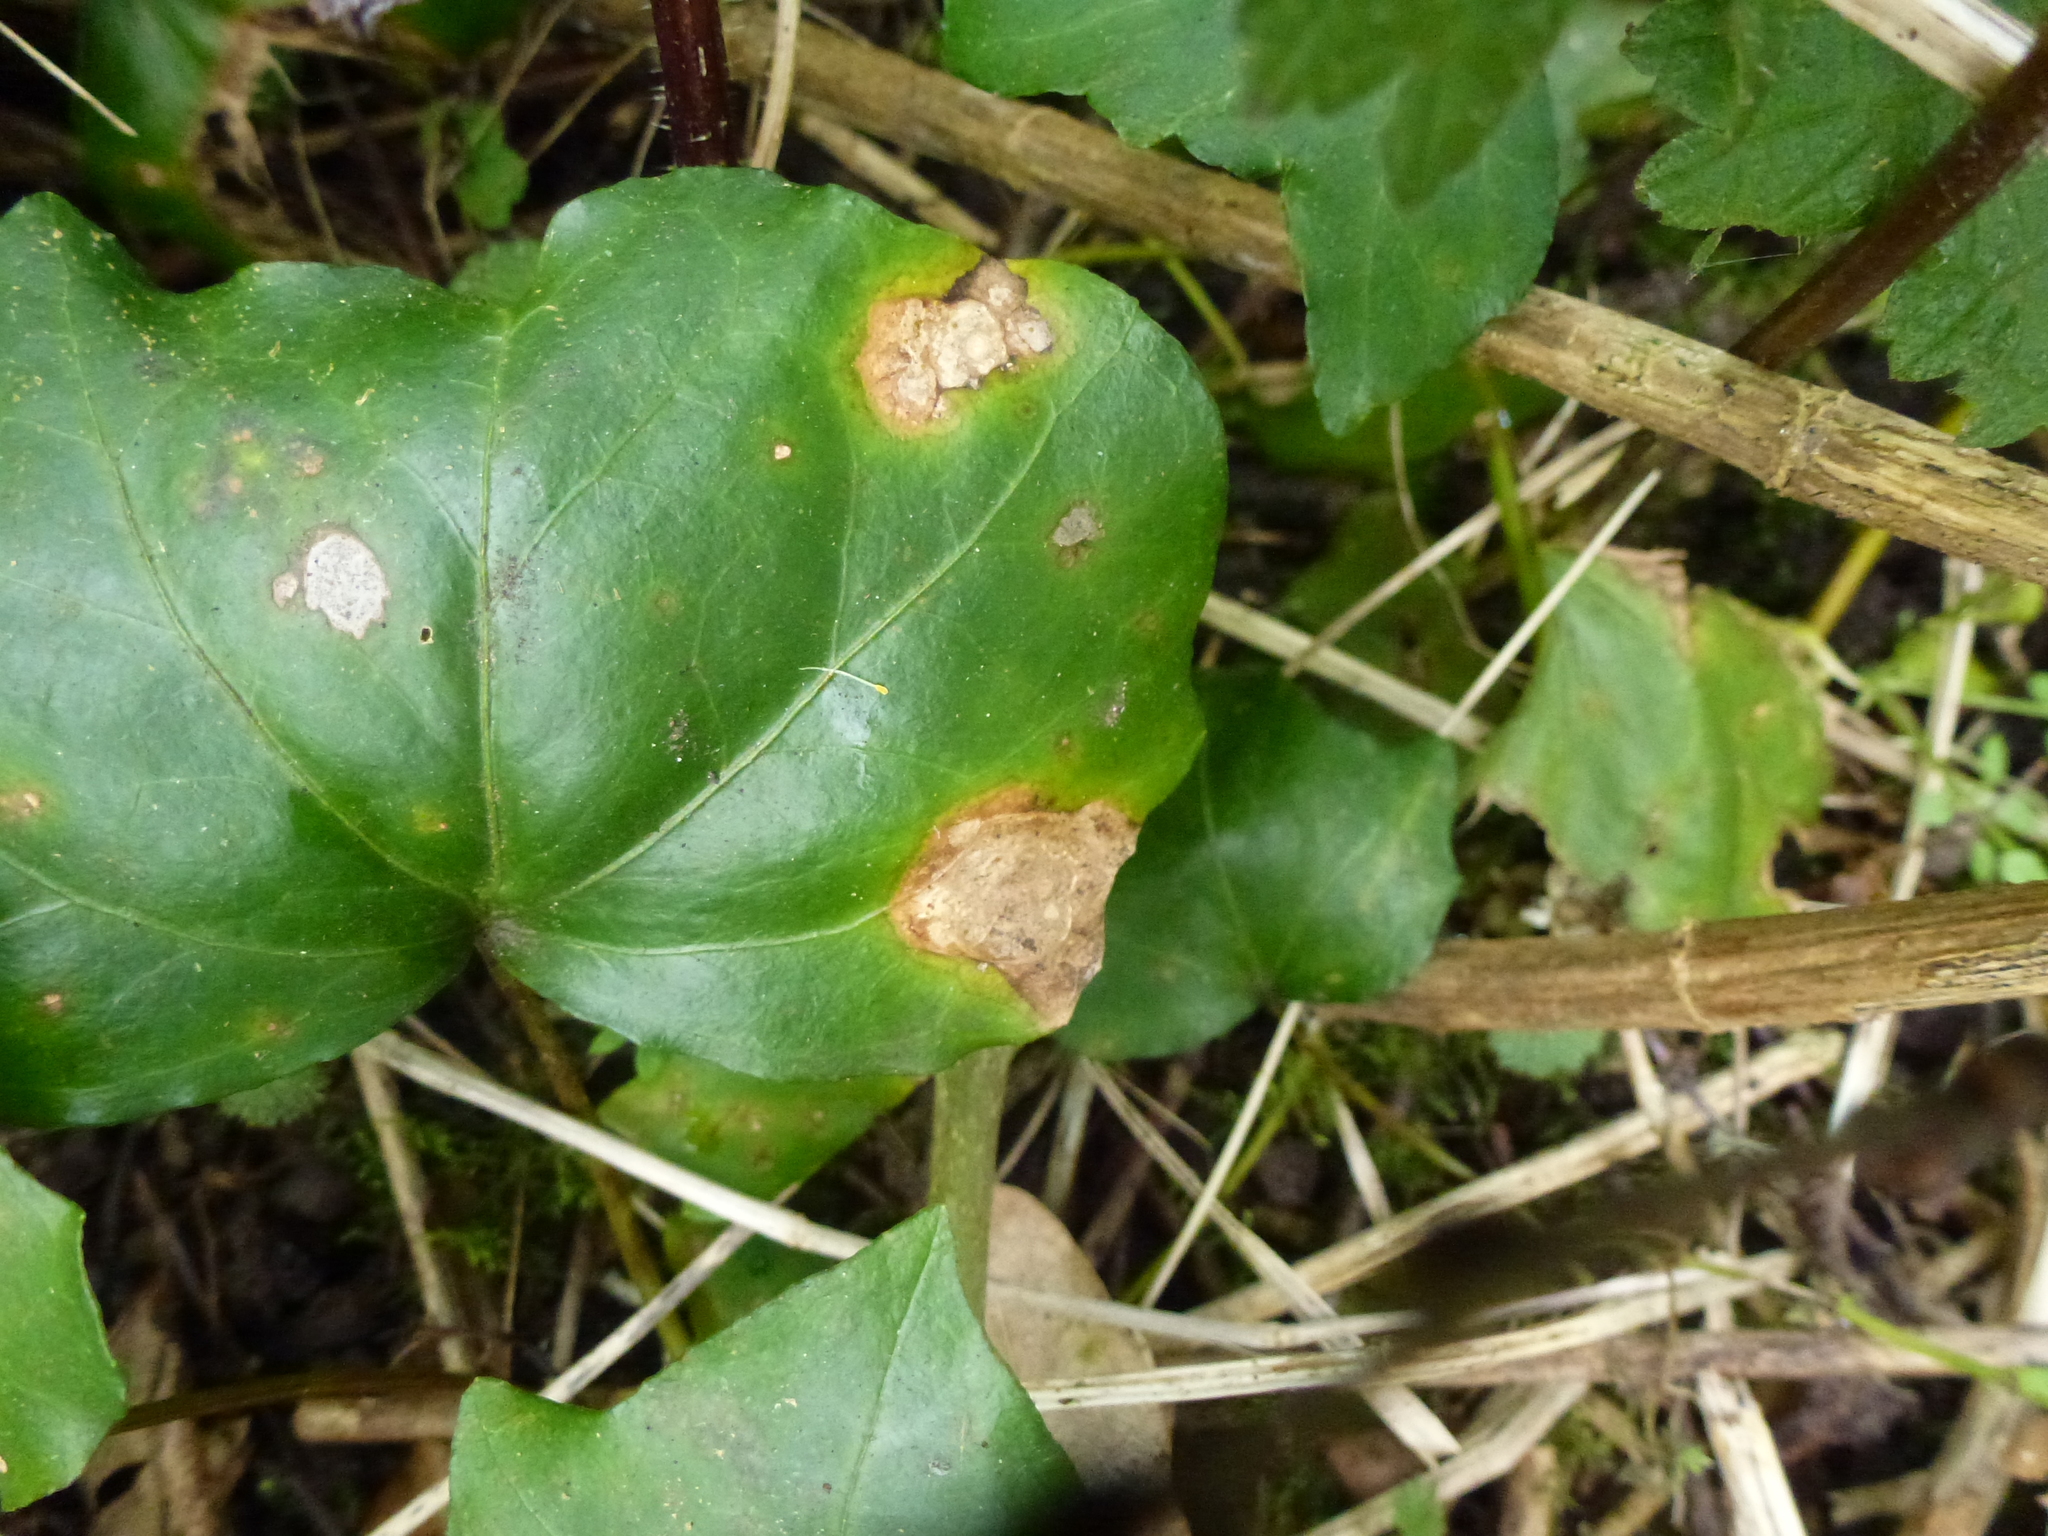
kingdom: Fungi
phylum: Ascomycota
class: Dothideomycetes
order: Pleosporales
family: Didymellaceae
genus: Boeremia
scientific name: Boeremia hedericola
